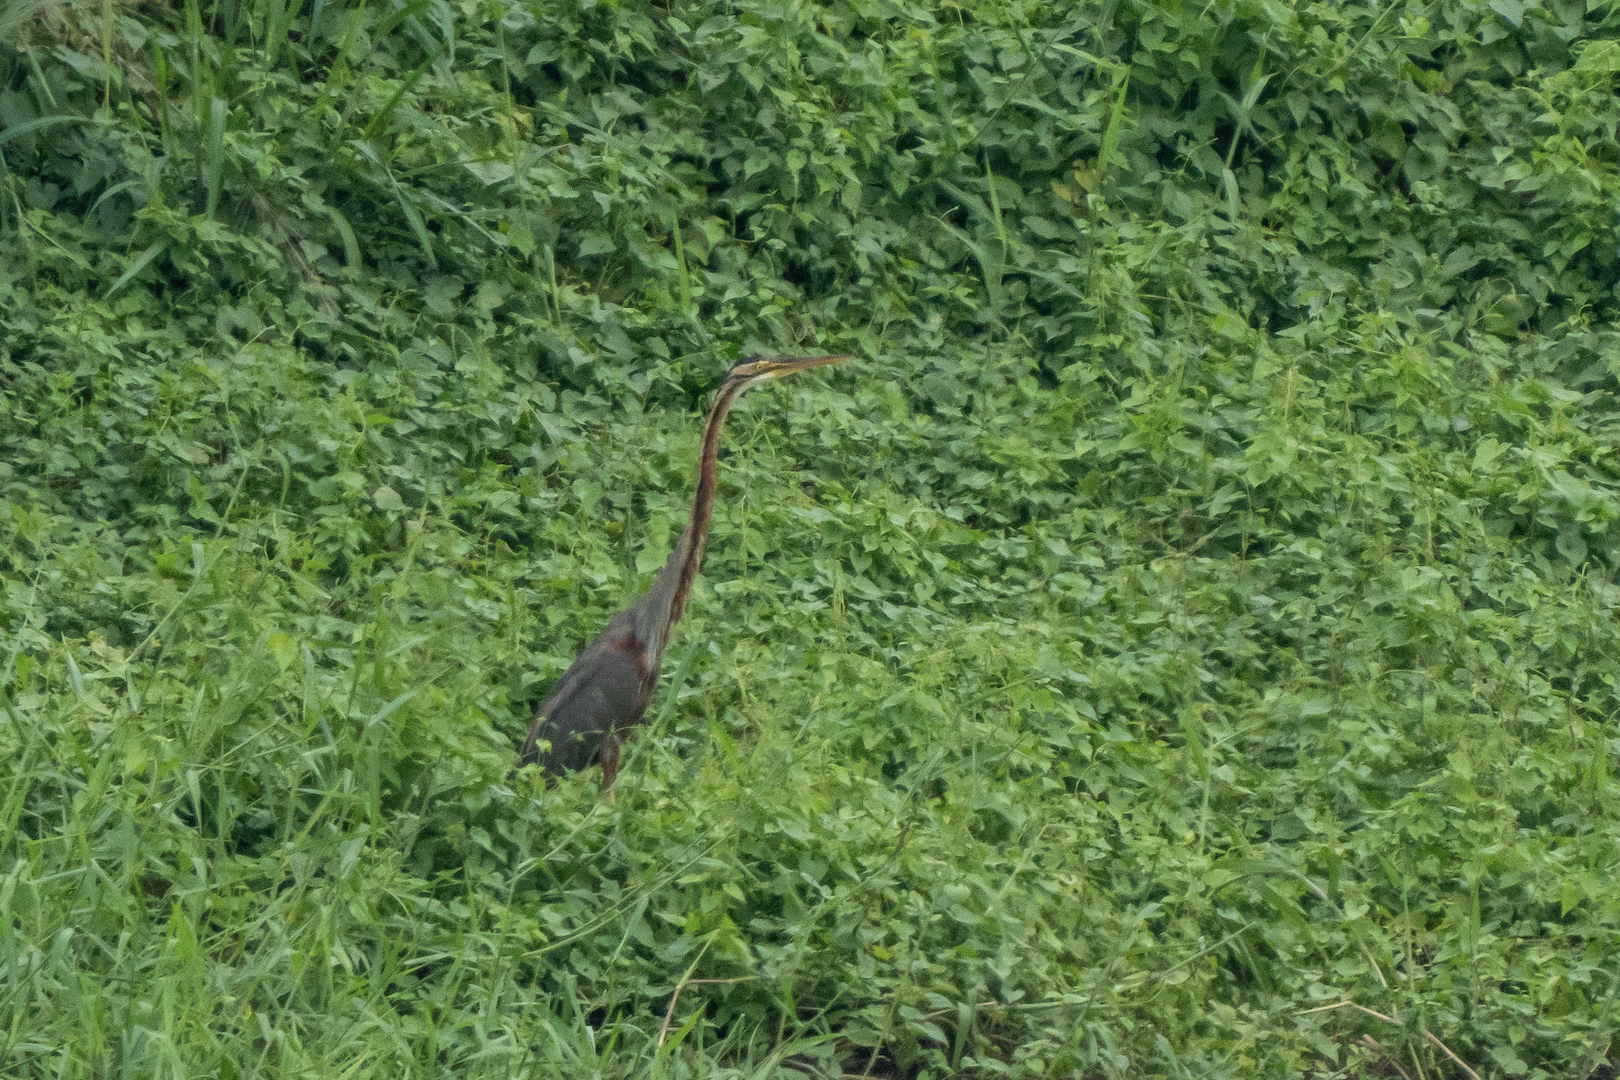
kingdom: Animalia
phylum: Chordata
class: Aves
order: Pelecaniformes
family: Ardeidae
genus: Ardea
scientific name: Ardea purpurea
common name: Purple heron
